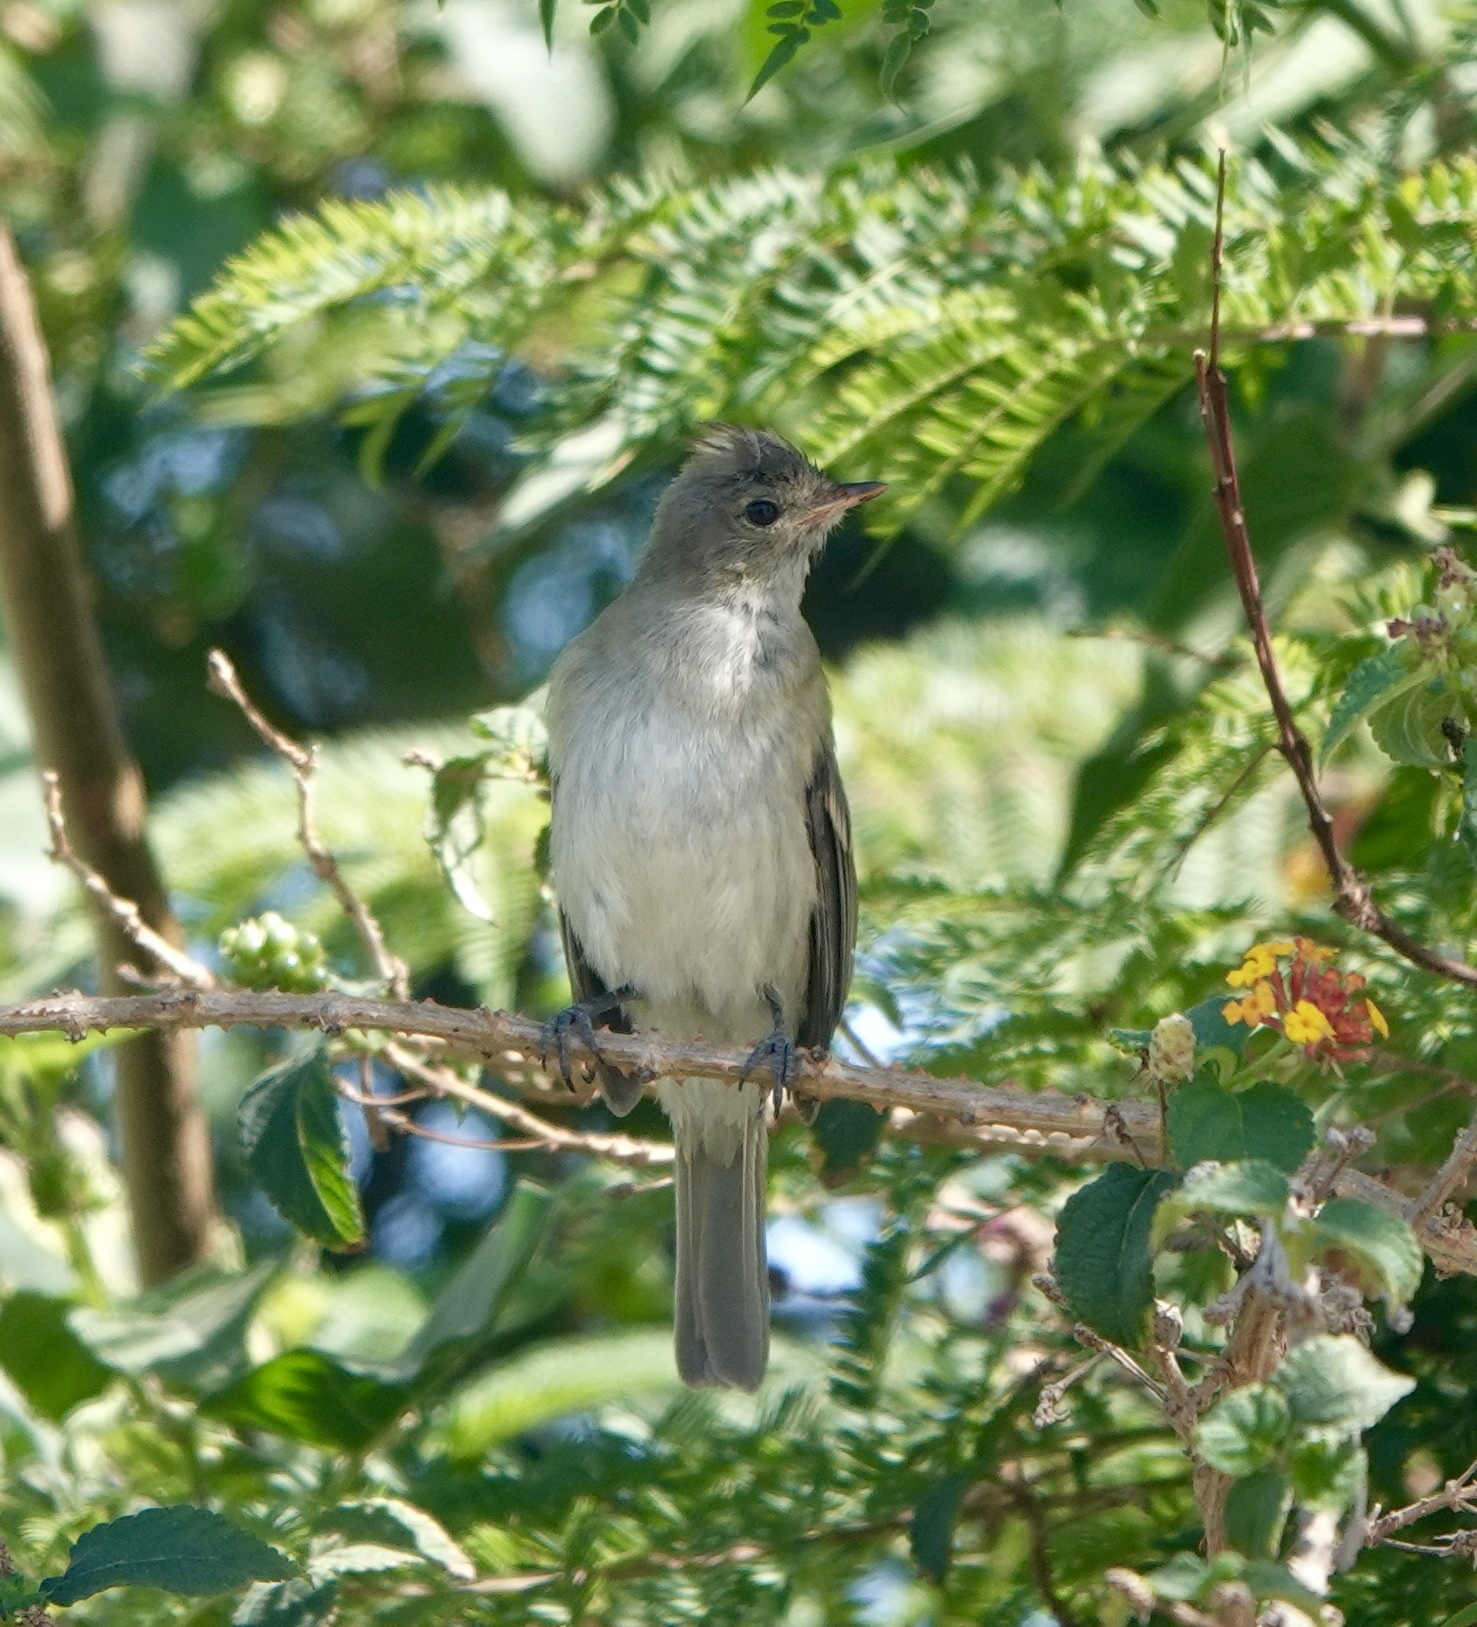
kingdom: Animalia
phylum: Chordata
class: Aves
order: Passeriformes
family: Tyrannidae
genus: Elaenia
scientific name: Elaenia albiceps
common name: White-crested elaenia
